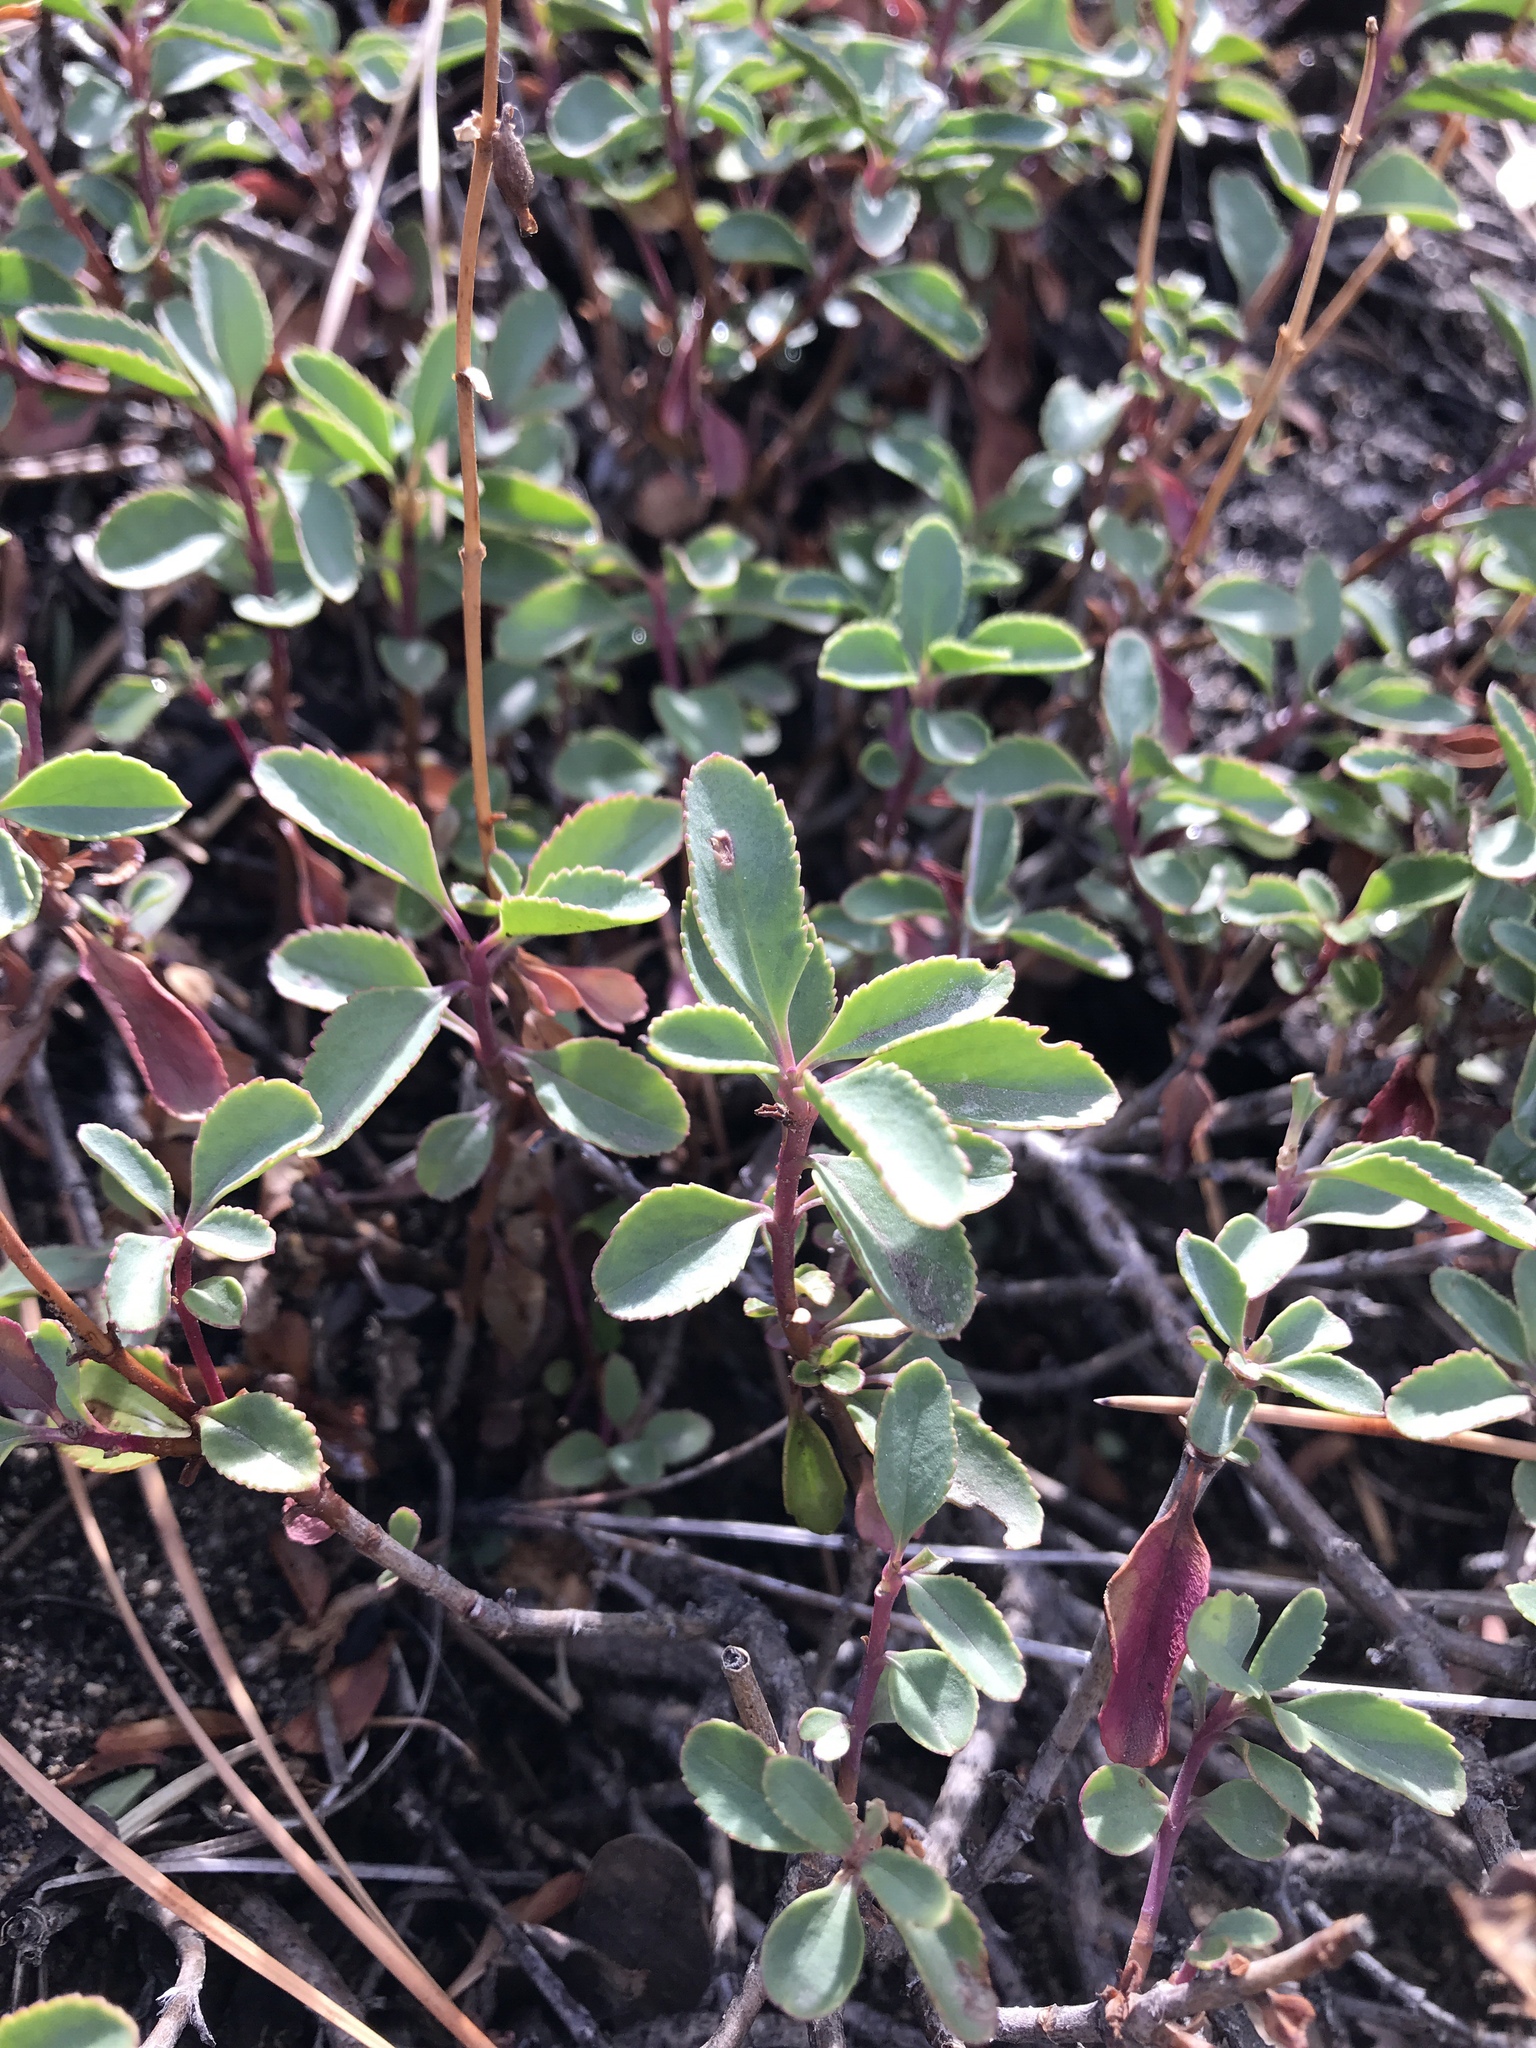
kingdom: Plantae
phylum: Tracheophyta
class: Magnoliopsida
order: Lamiales
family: Plantaginaceae
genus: Penstemon
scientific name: Penstemon newberryi
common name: Mountain-pride
